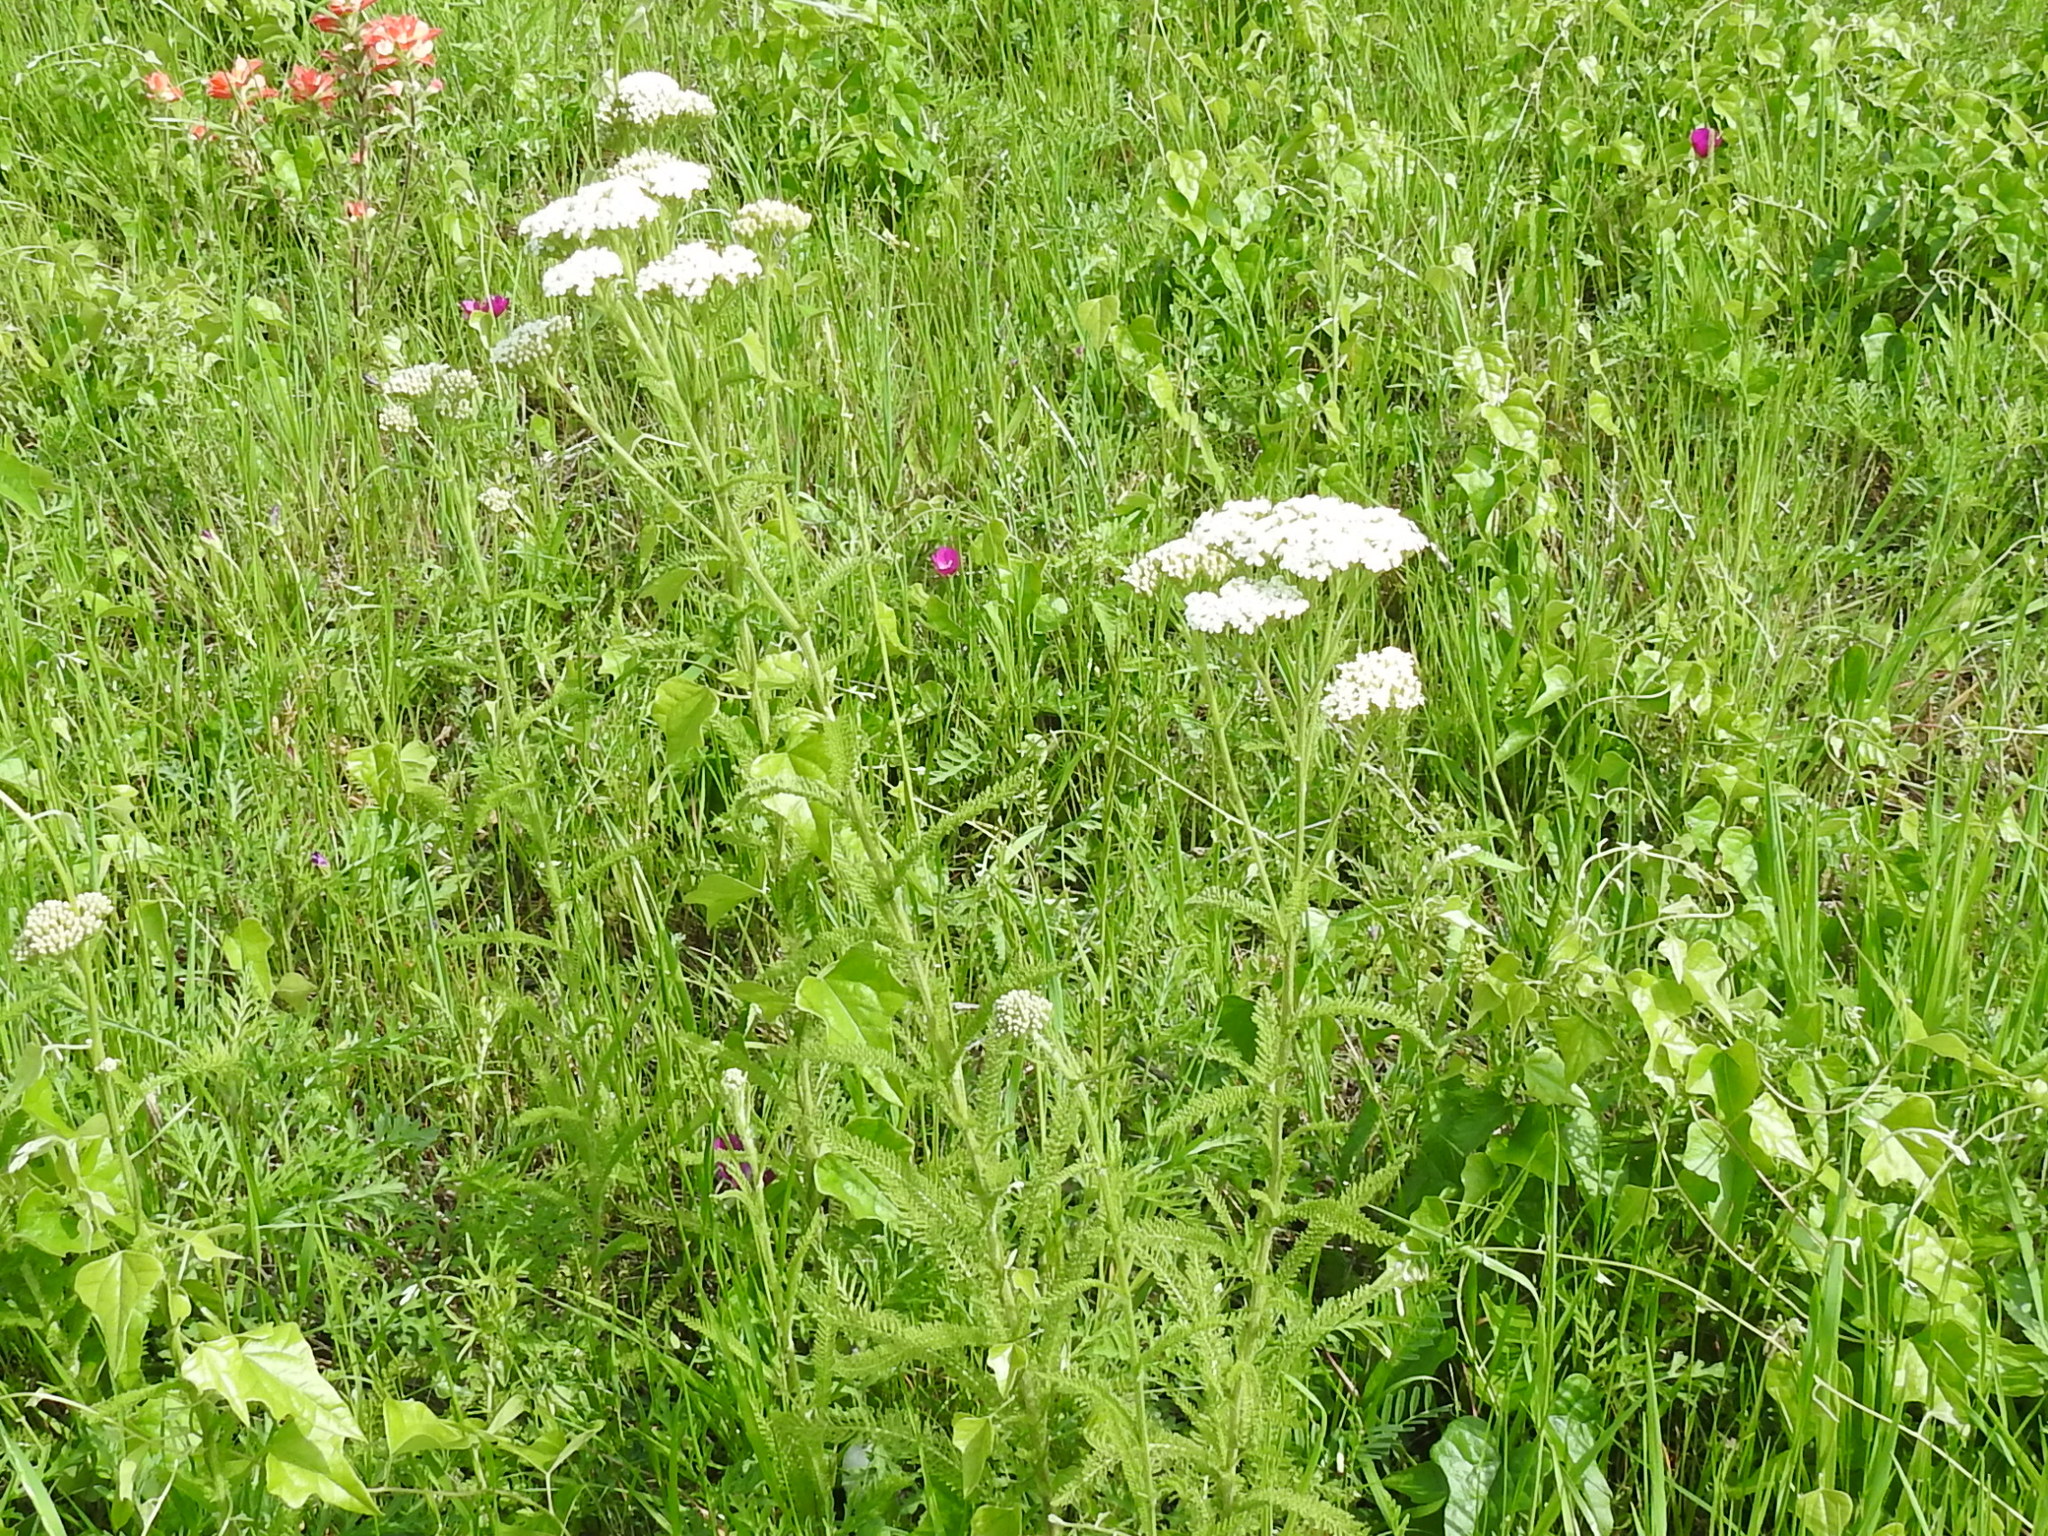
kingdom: Plantae
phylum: Tracheophyta
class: Magnoliopsida
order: Asterales
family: Asteraceae
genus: Achillea
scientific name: Achillea millefolium
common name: Yarrow
